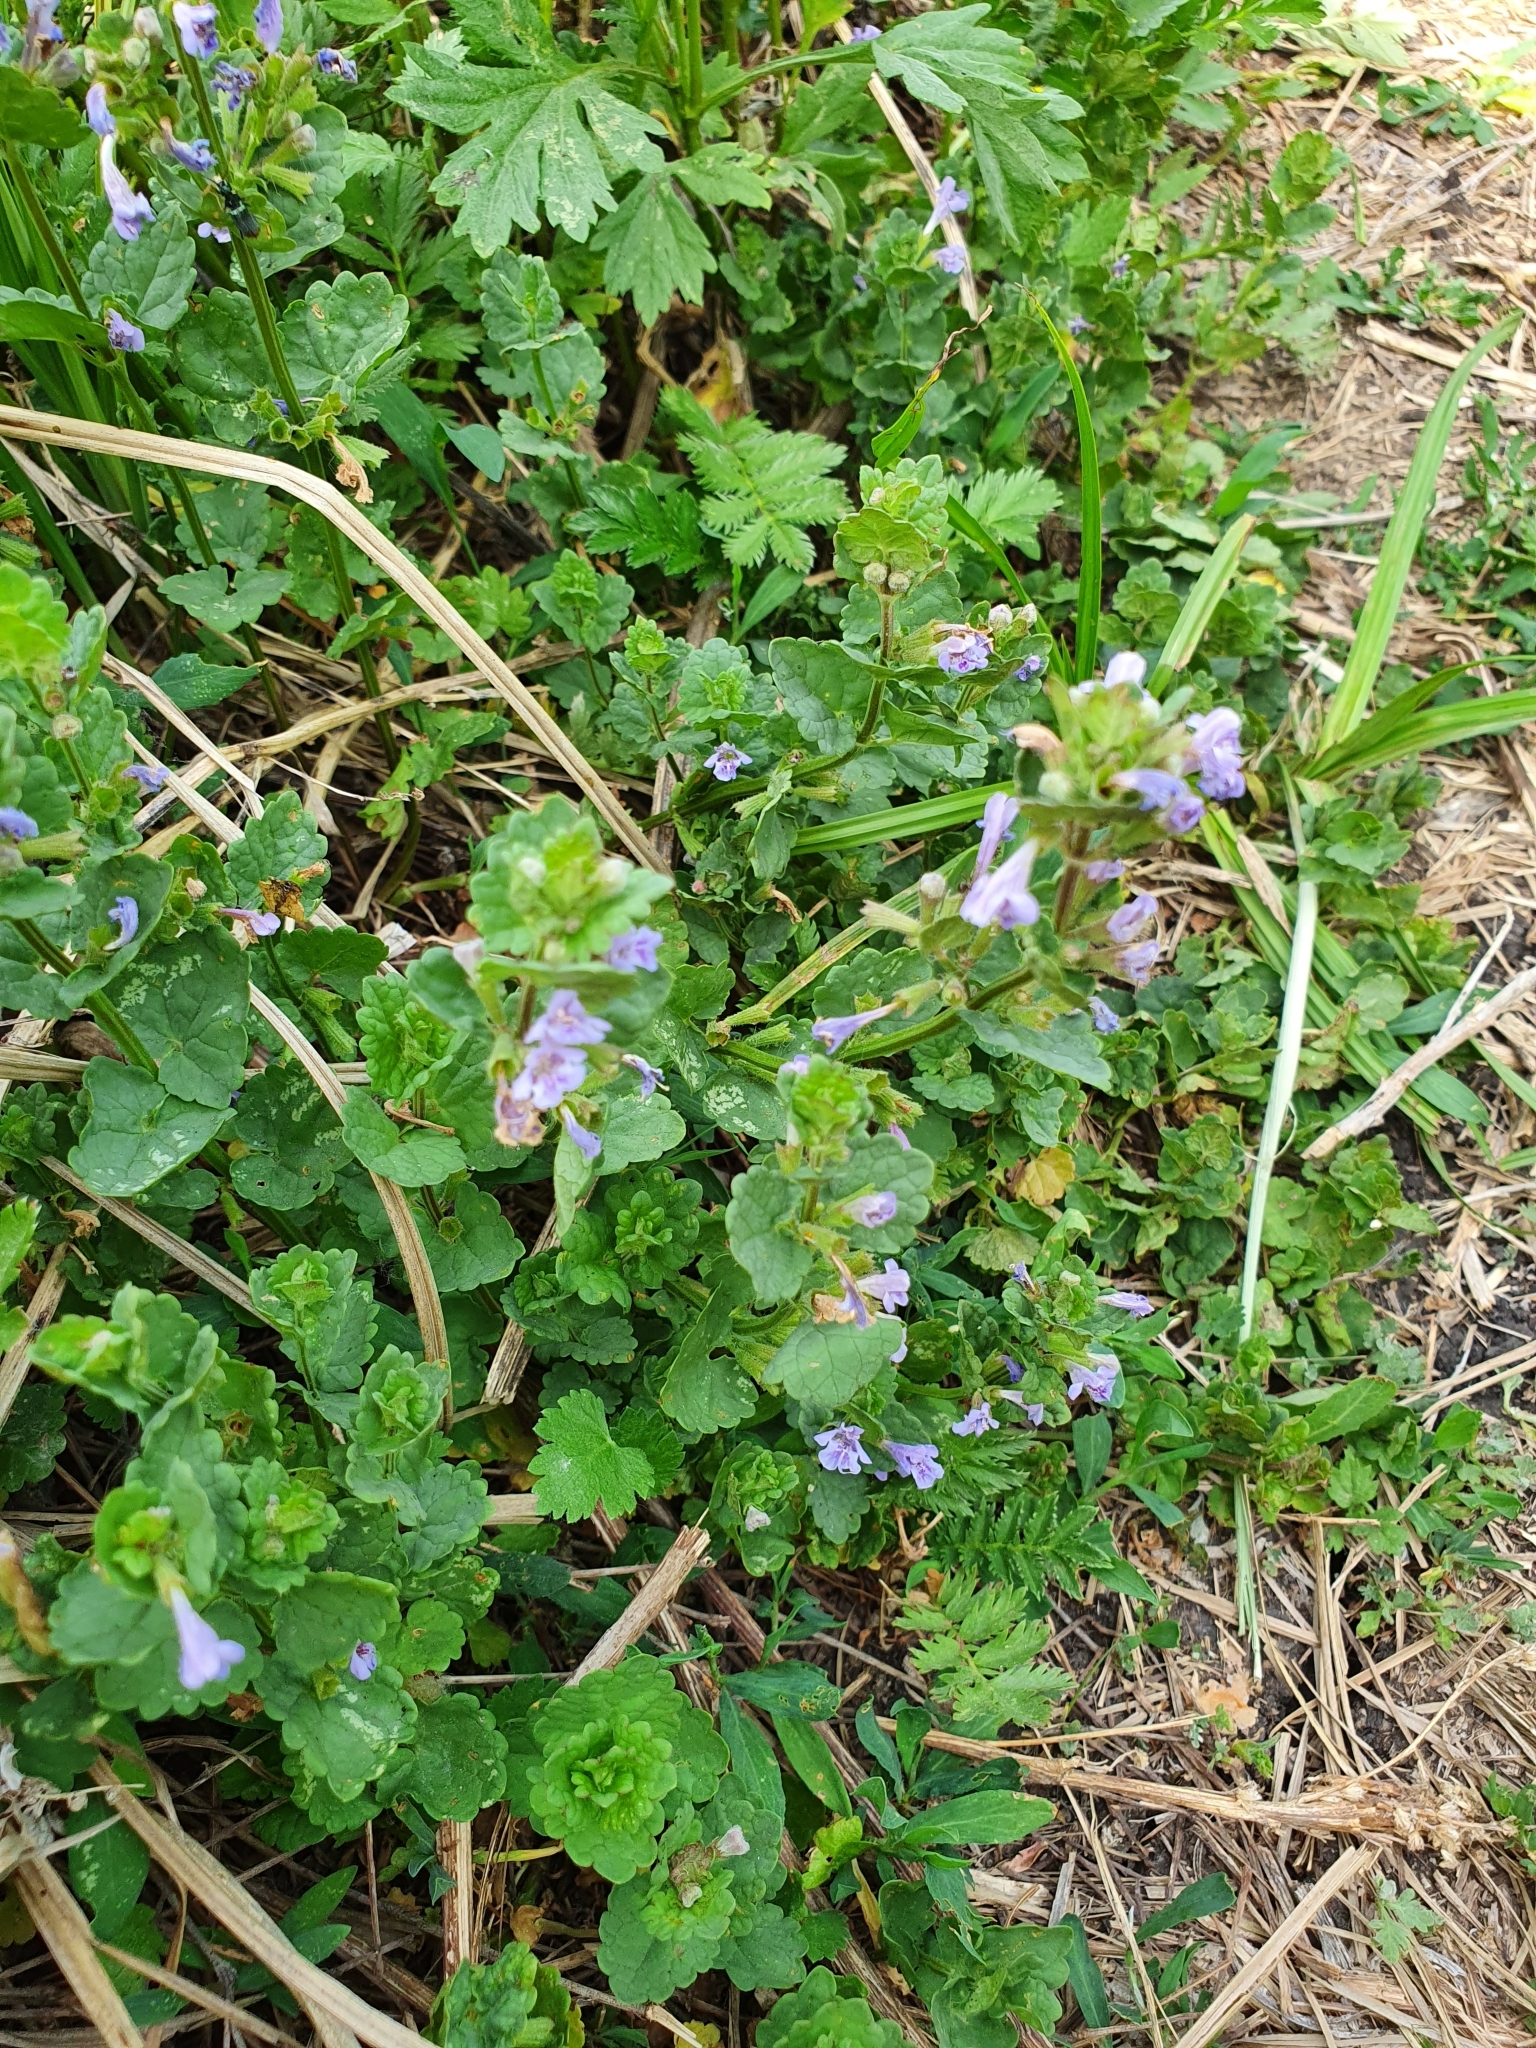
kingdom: Plantae
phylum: Tracheophyta
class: Magnoliopsida
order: Lamiales
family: Lamiaceae
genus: Glechoma
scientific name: Glechoma hederacea
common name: Ground ivy
